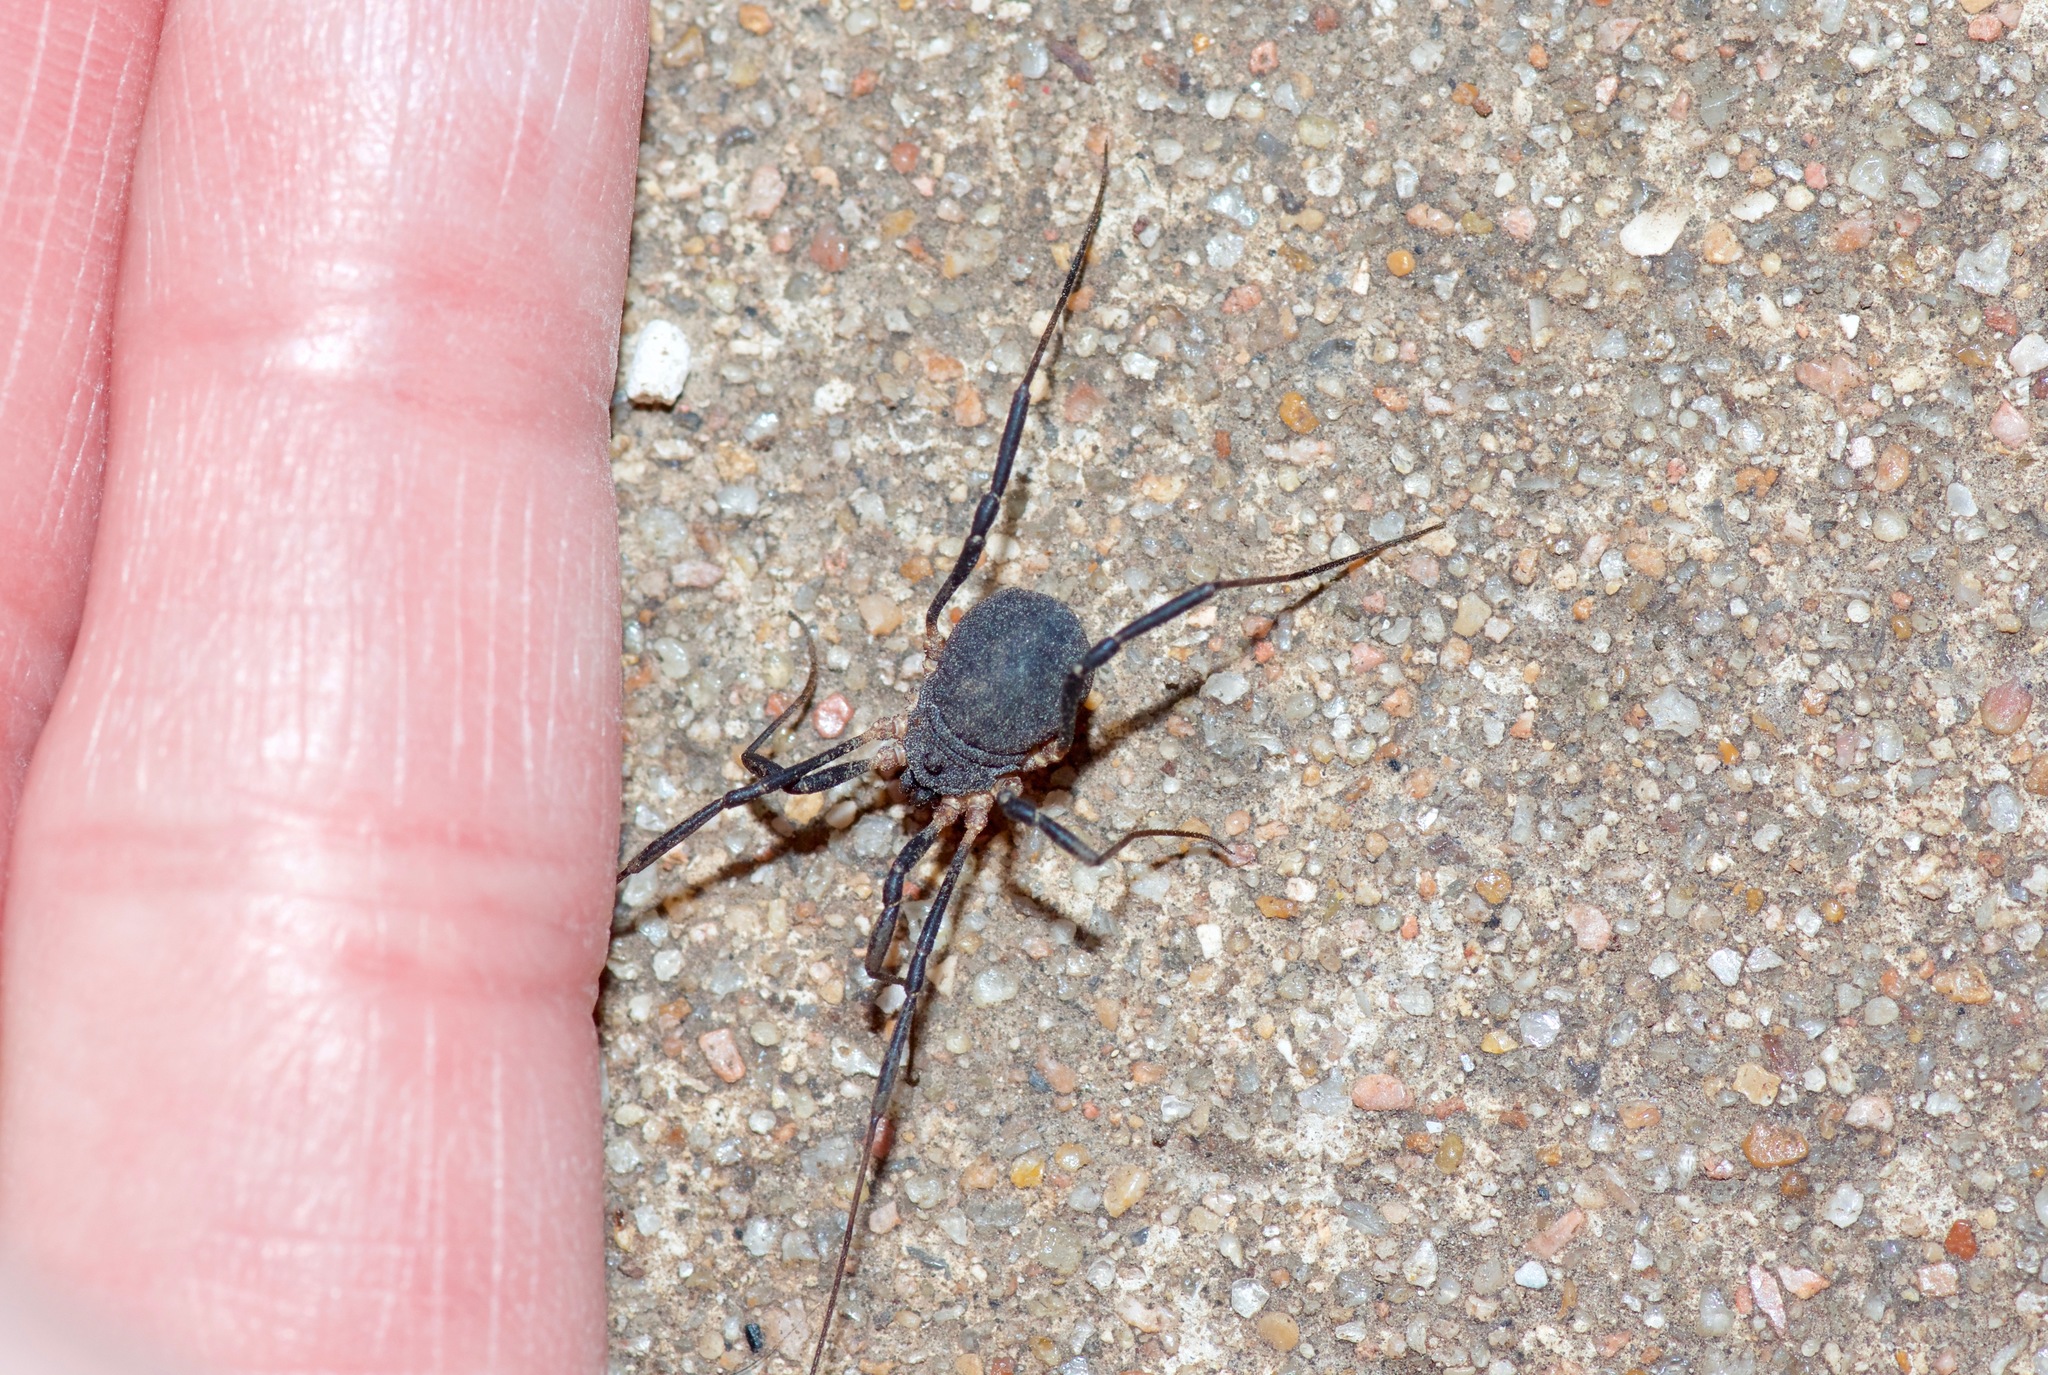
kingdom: Animalia
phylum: Arthropoda
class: Arachnida
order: Opiliones
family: Sclerosomatidae
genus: Eumesosoma
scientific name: Eumesosoma roeweri
